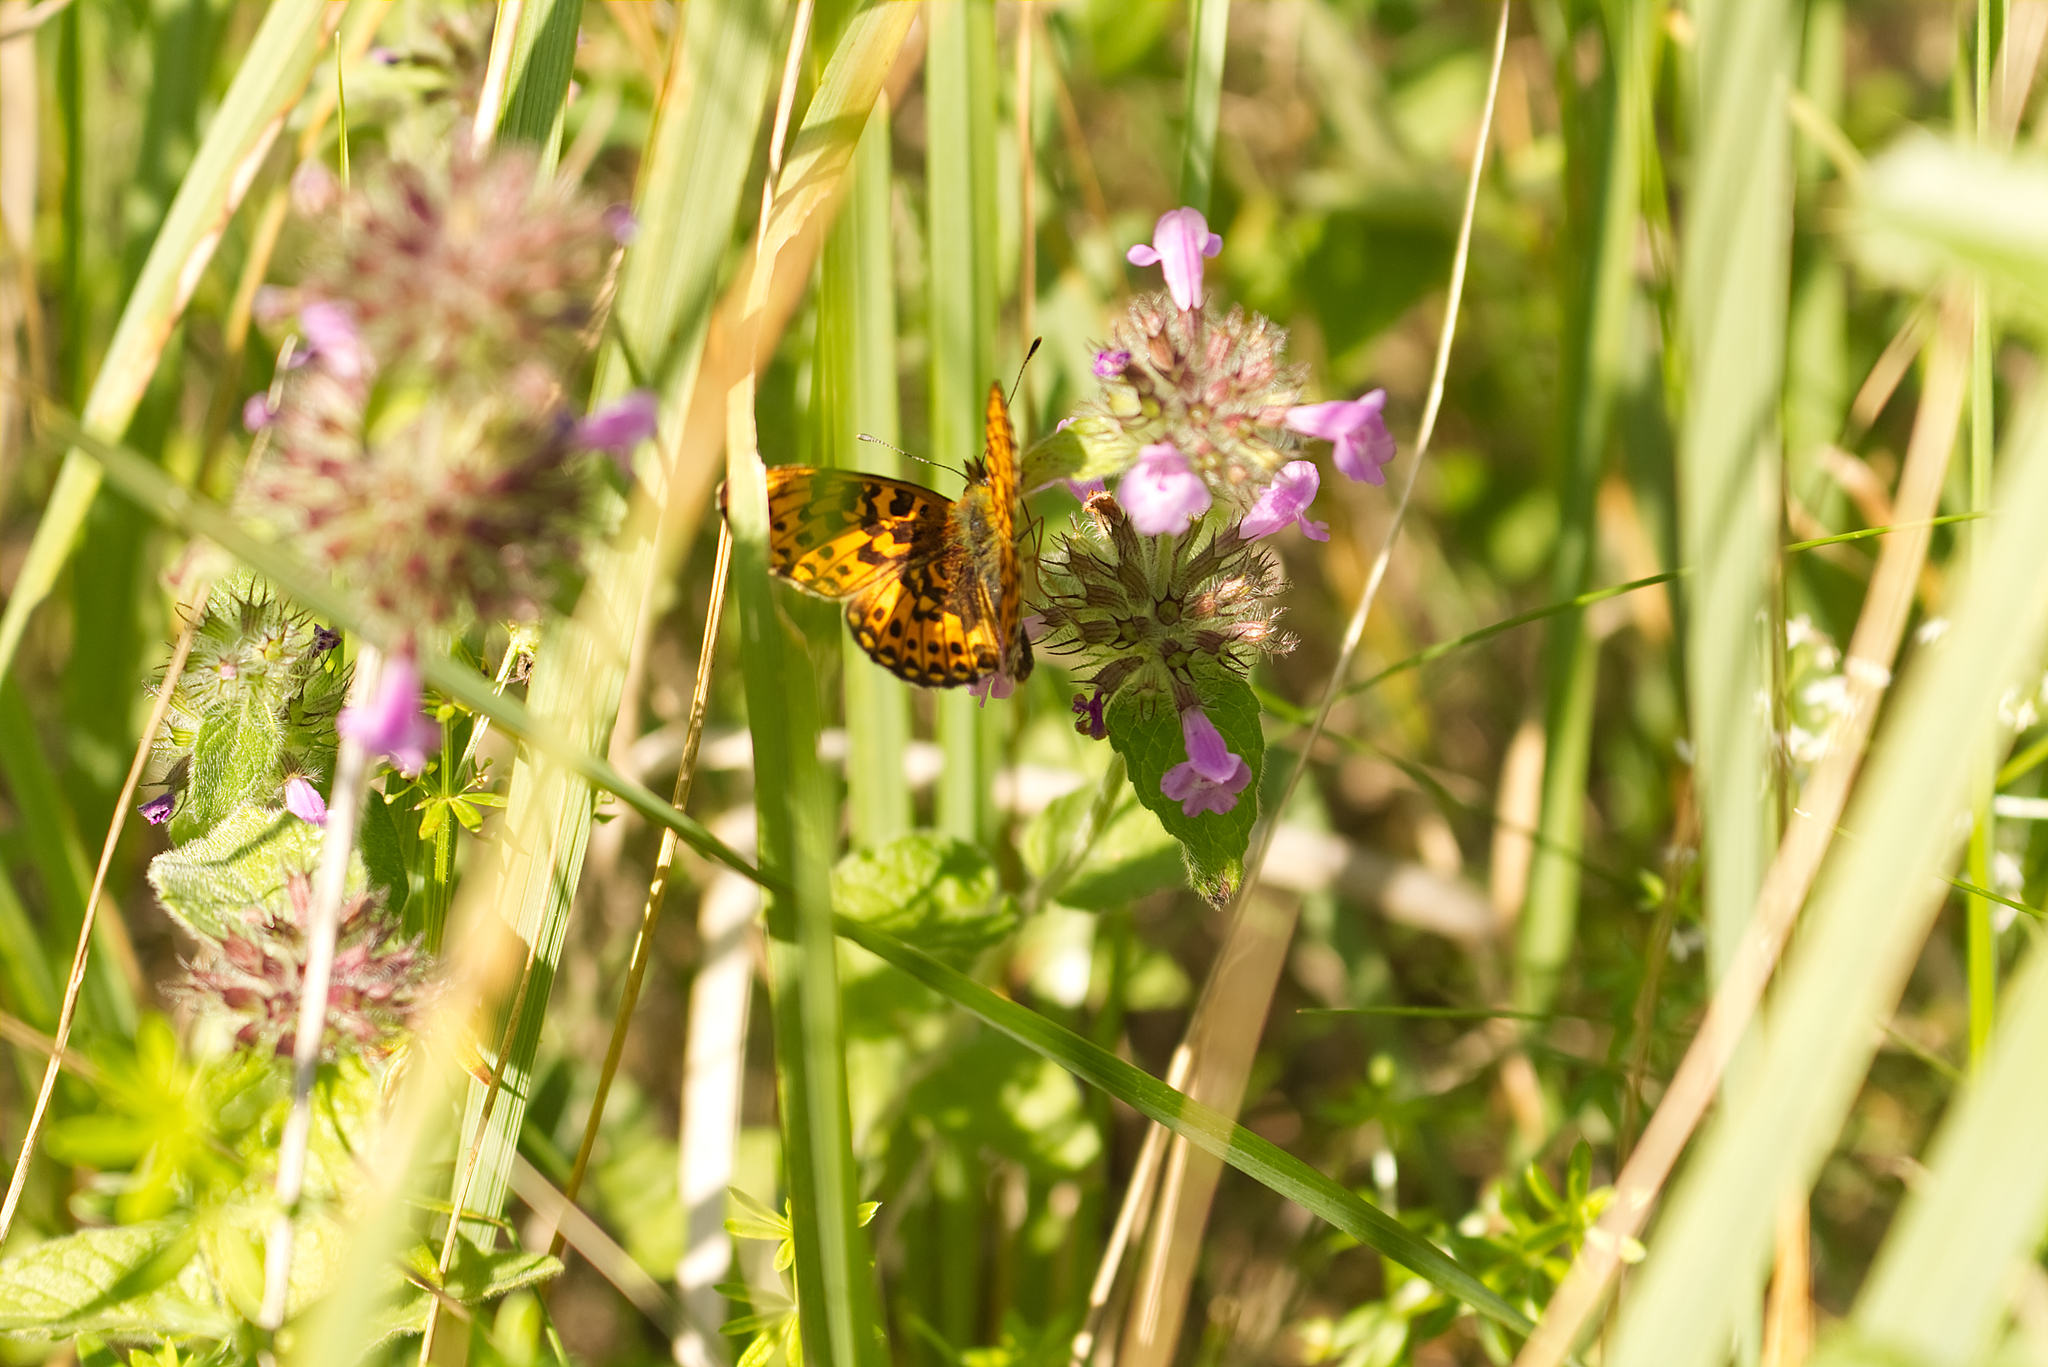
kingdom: Animalia
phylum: Arthropoda
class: Insecta
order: Lepidoptera
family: Nymphalidae
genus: Clossiana
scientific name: Clossiana euphrosyne
